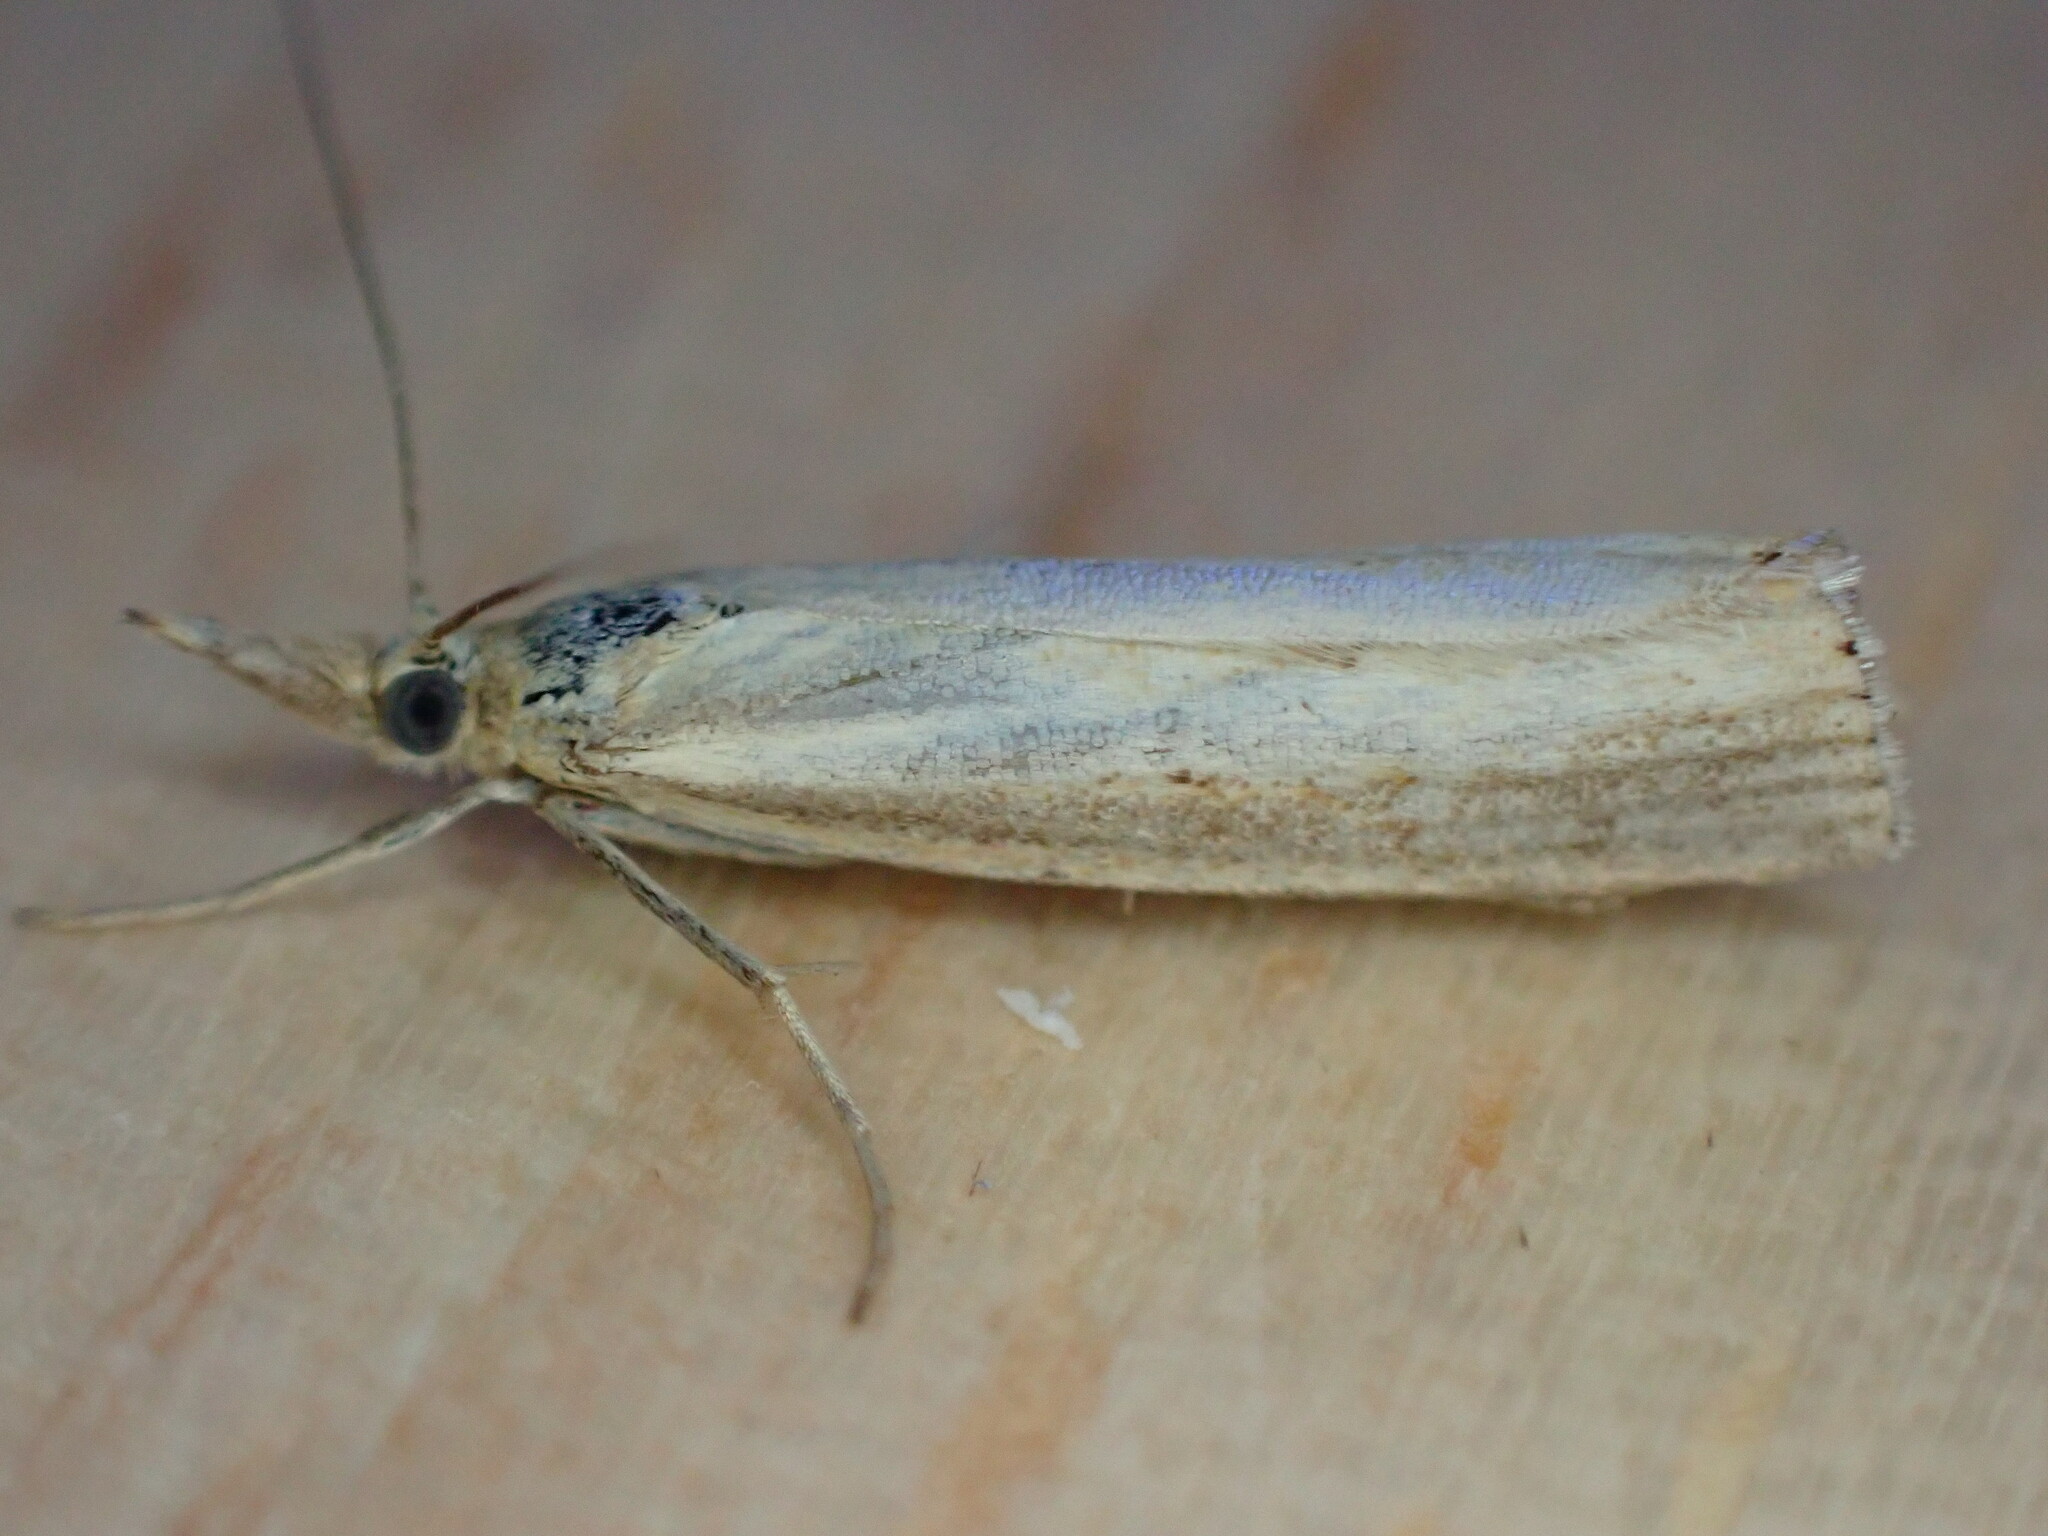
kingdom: Animalia
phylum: Arthropoda
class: Insecta
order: Lepidoptera
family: Crambidae
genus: Agriphila
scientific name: Agriphila straminella
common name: Straw grass-veneer
